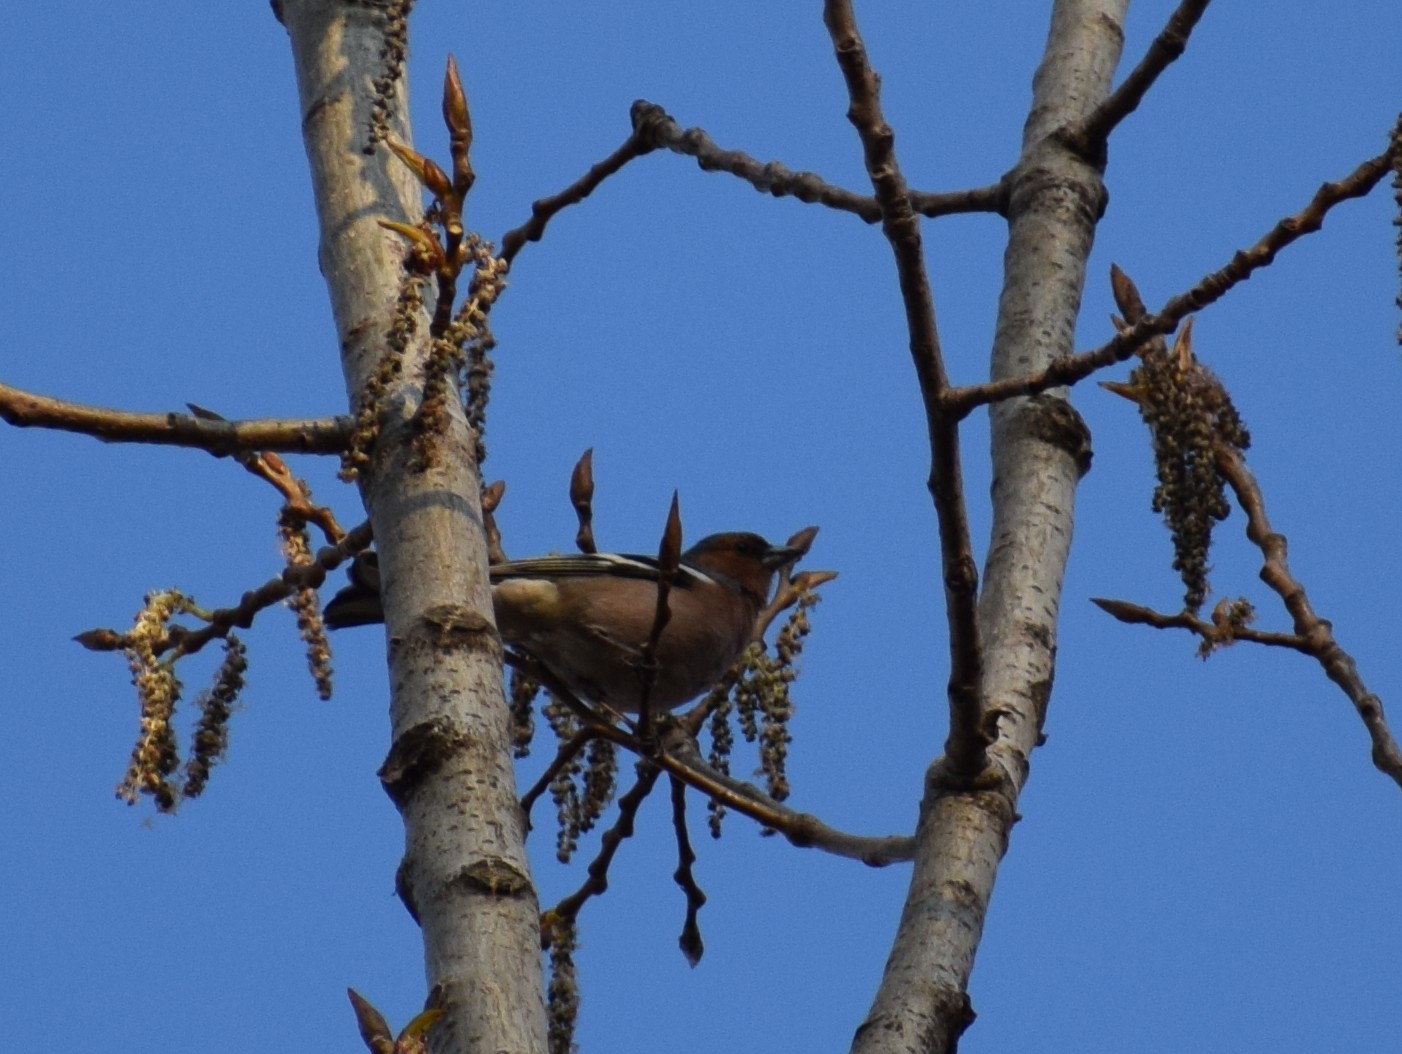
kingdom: Animalia
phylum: Chordata
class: Aves
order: Passeriformes
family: Fringillidae
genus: Fringilla
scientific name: Fringilla coelebs
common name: Common chaffinch
